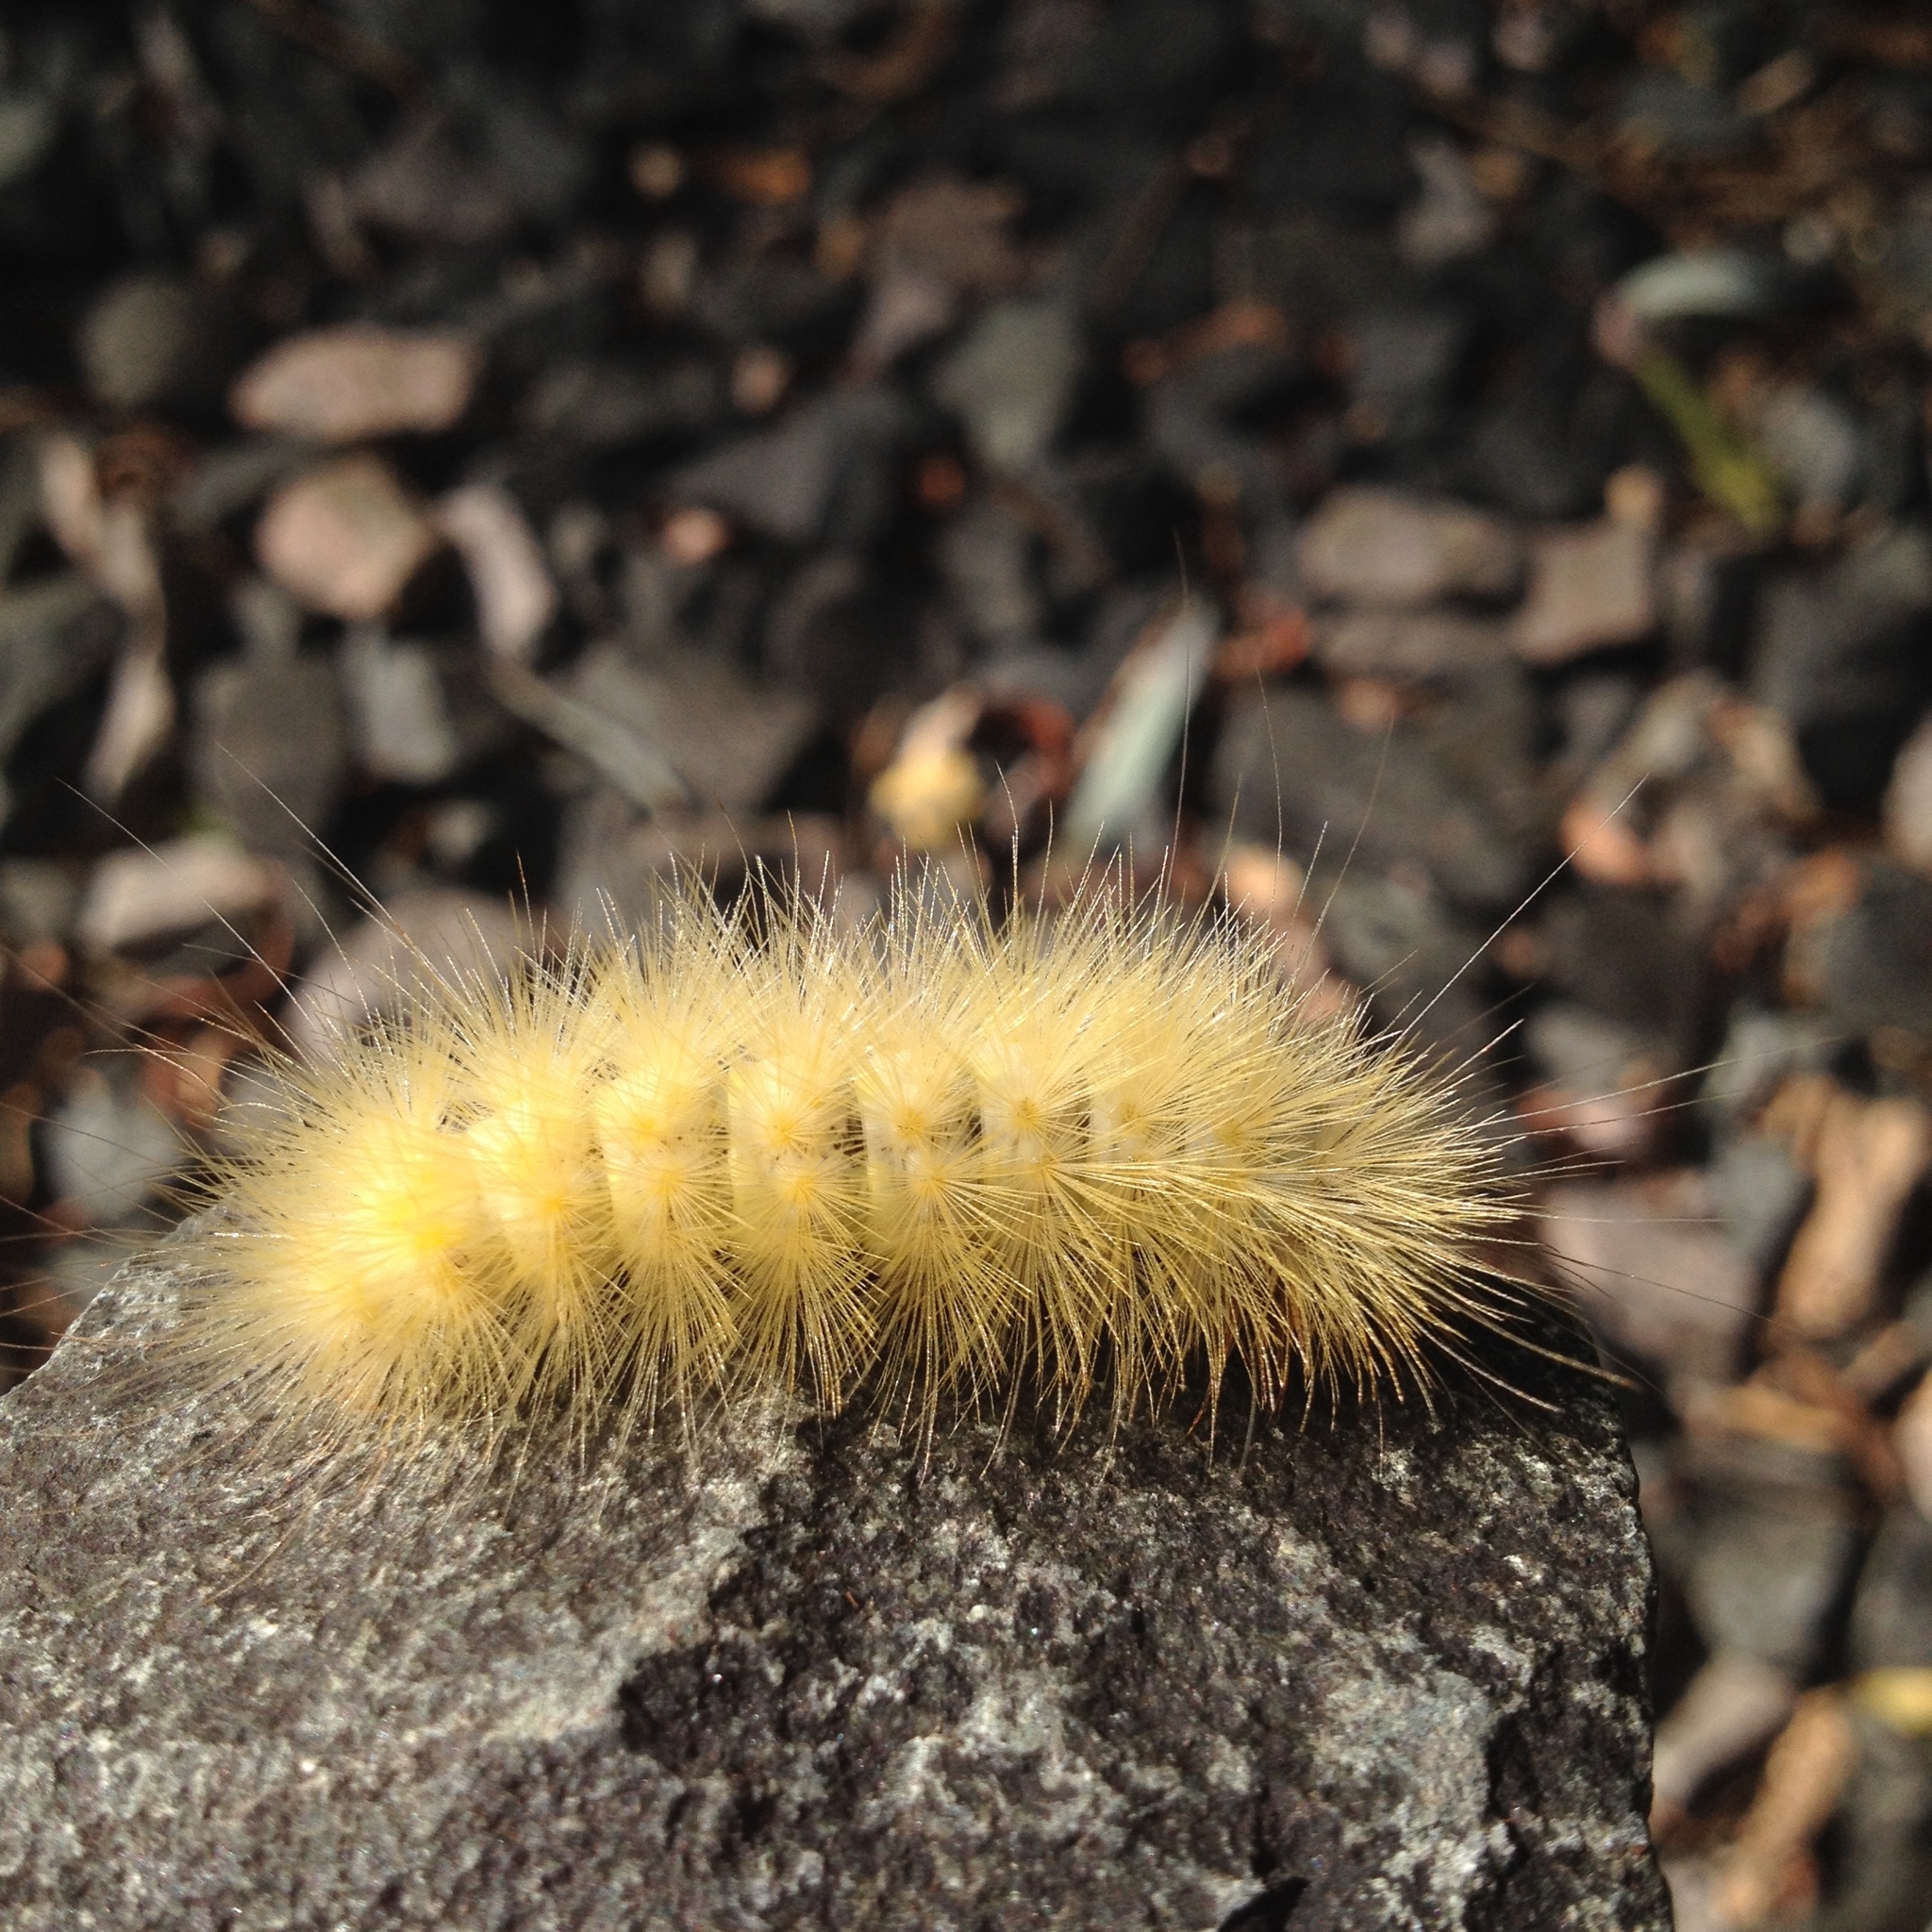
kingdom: Animalia
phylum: Arthropoda
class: Insecta
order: Lepidoptera
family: Erebidae
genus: Spilosoma
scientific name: Spilosoma virginica
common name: Virginia tiger moth
